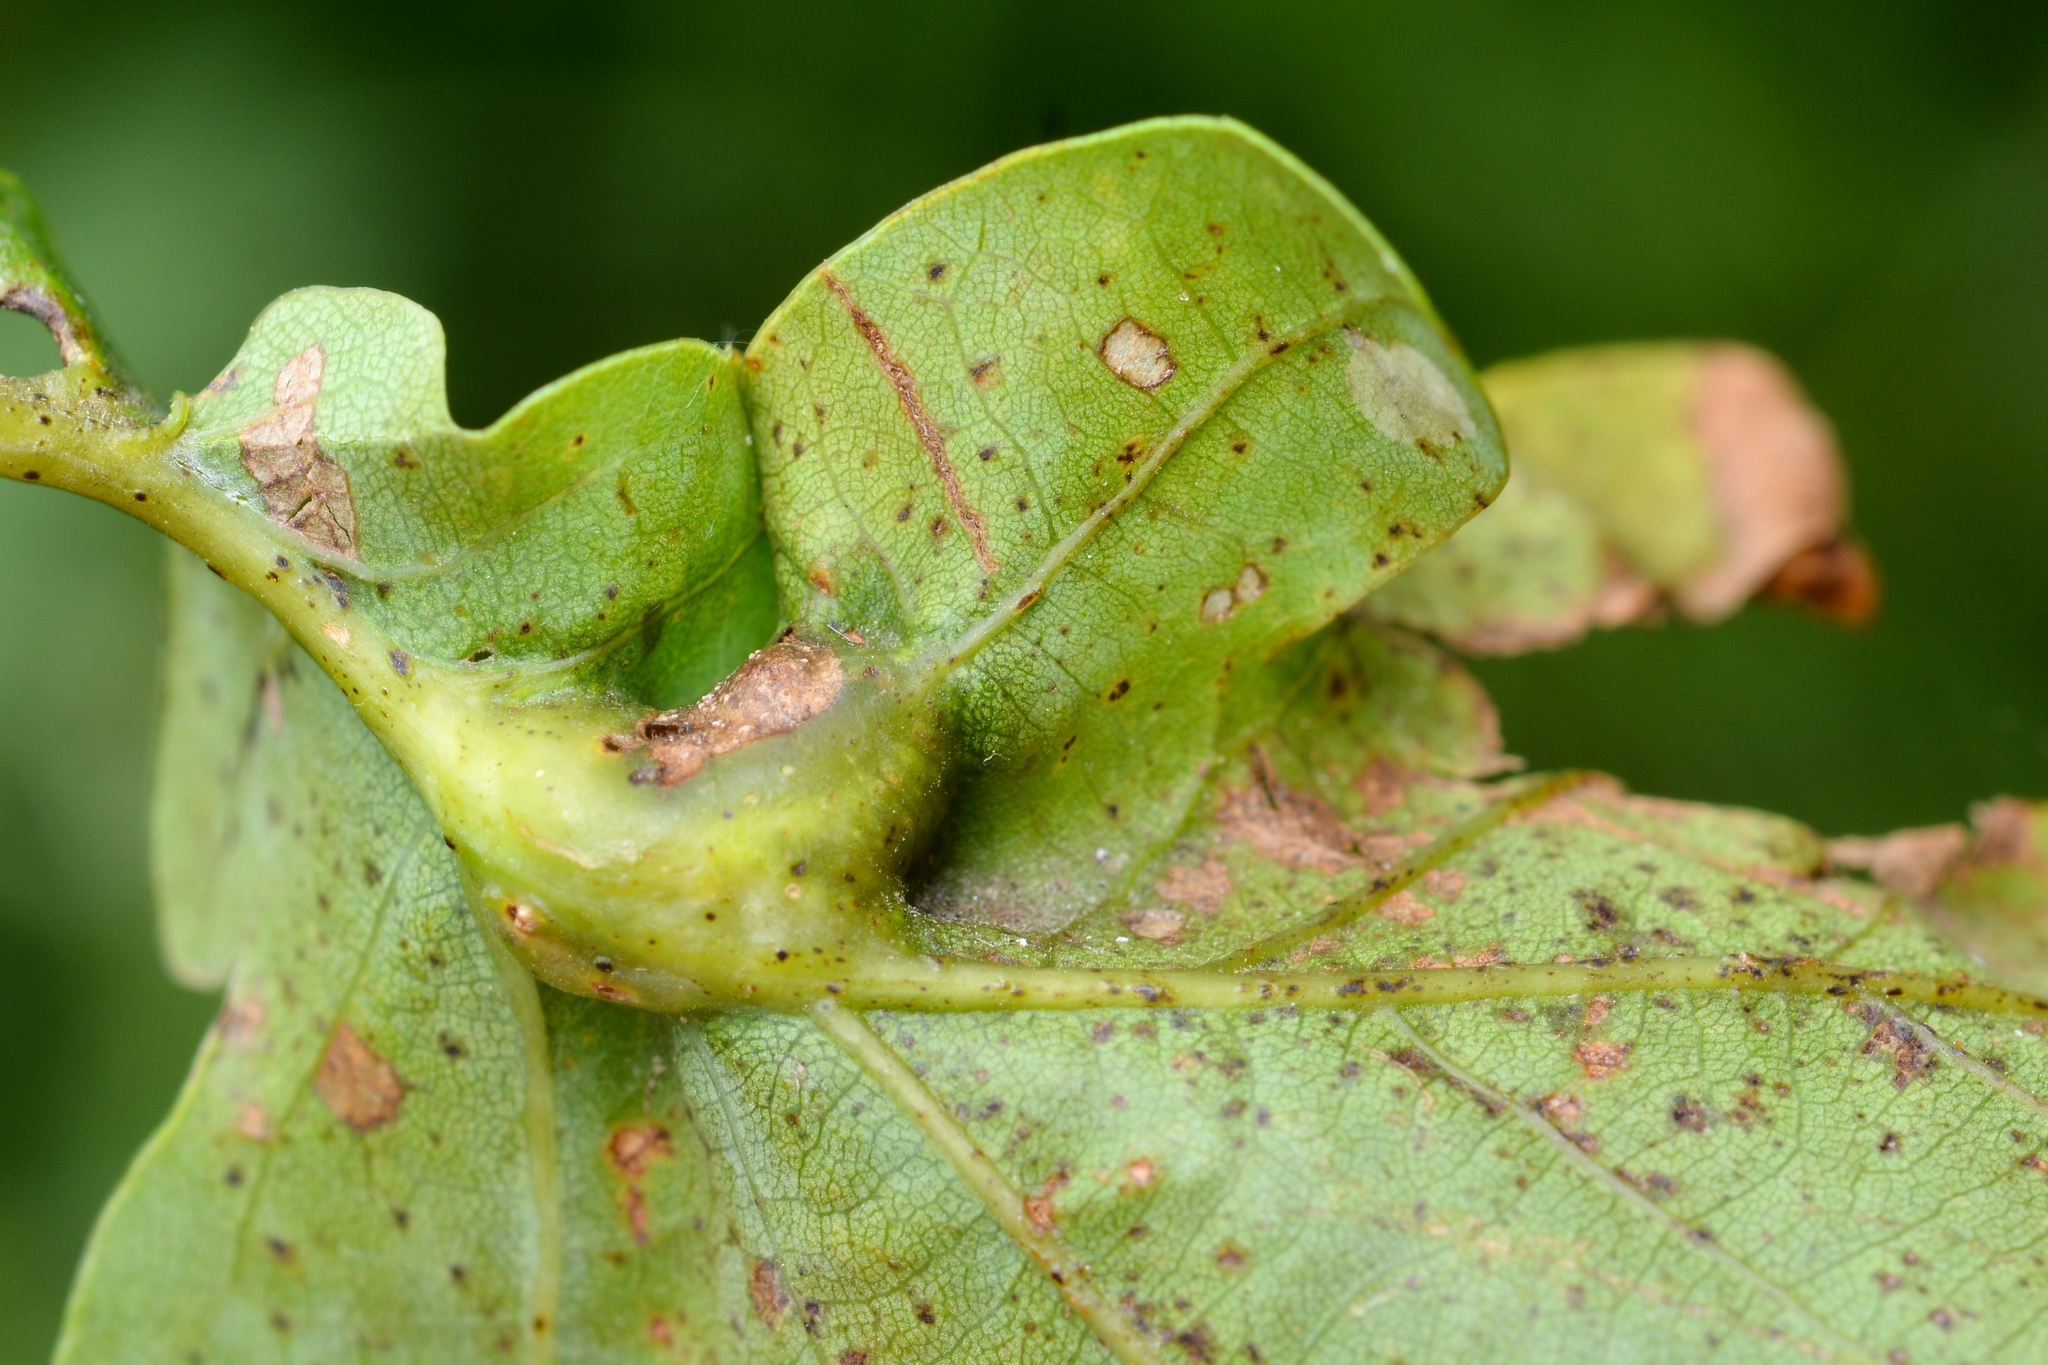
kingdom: Animalia
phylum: Arthropoda
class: Insecta
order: Hymenoptera
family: Cynipidae
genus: Andricus
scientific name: Andricus curvator
